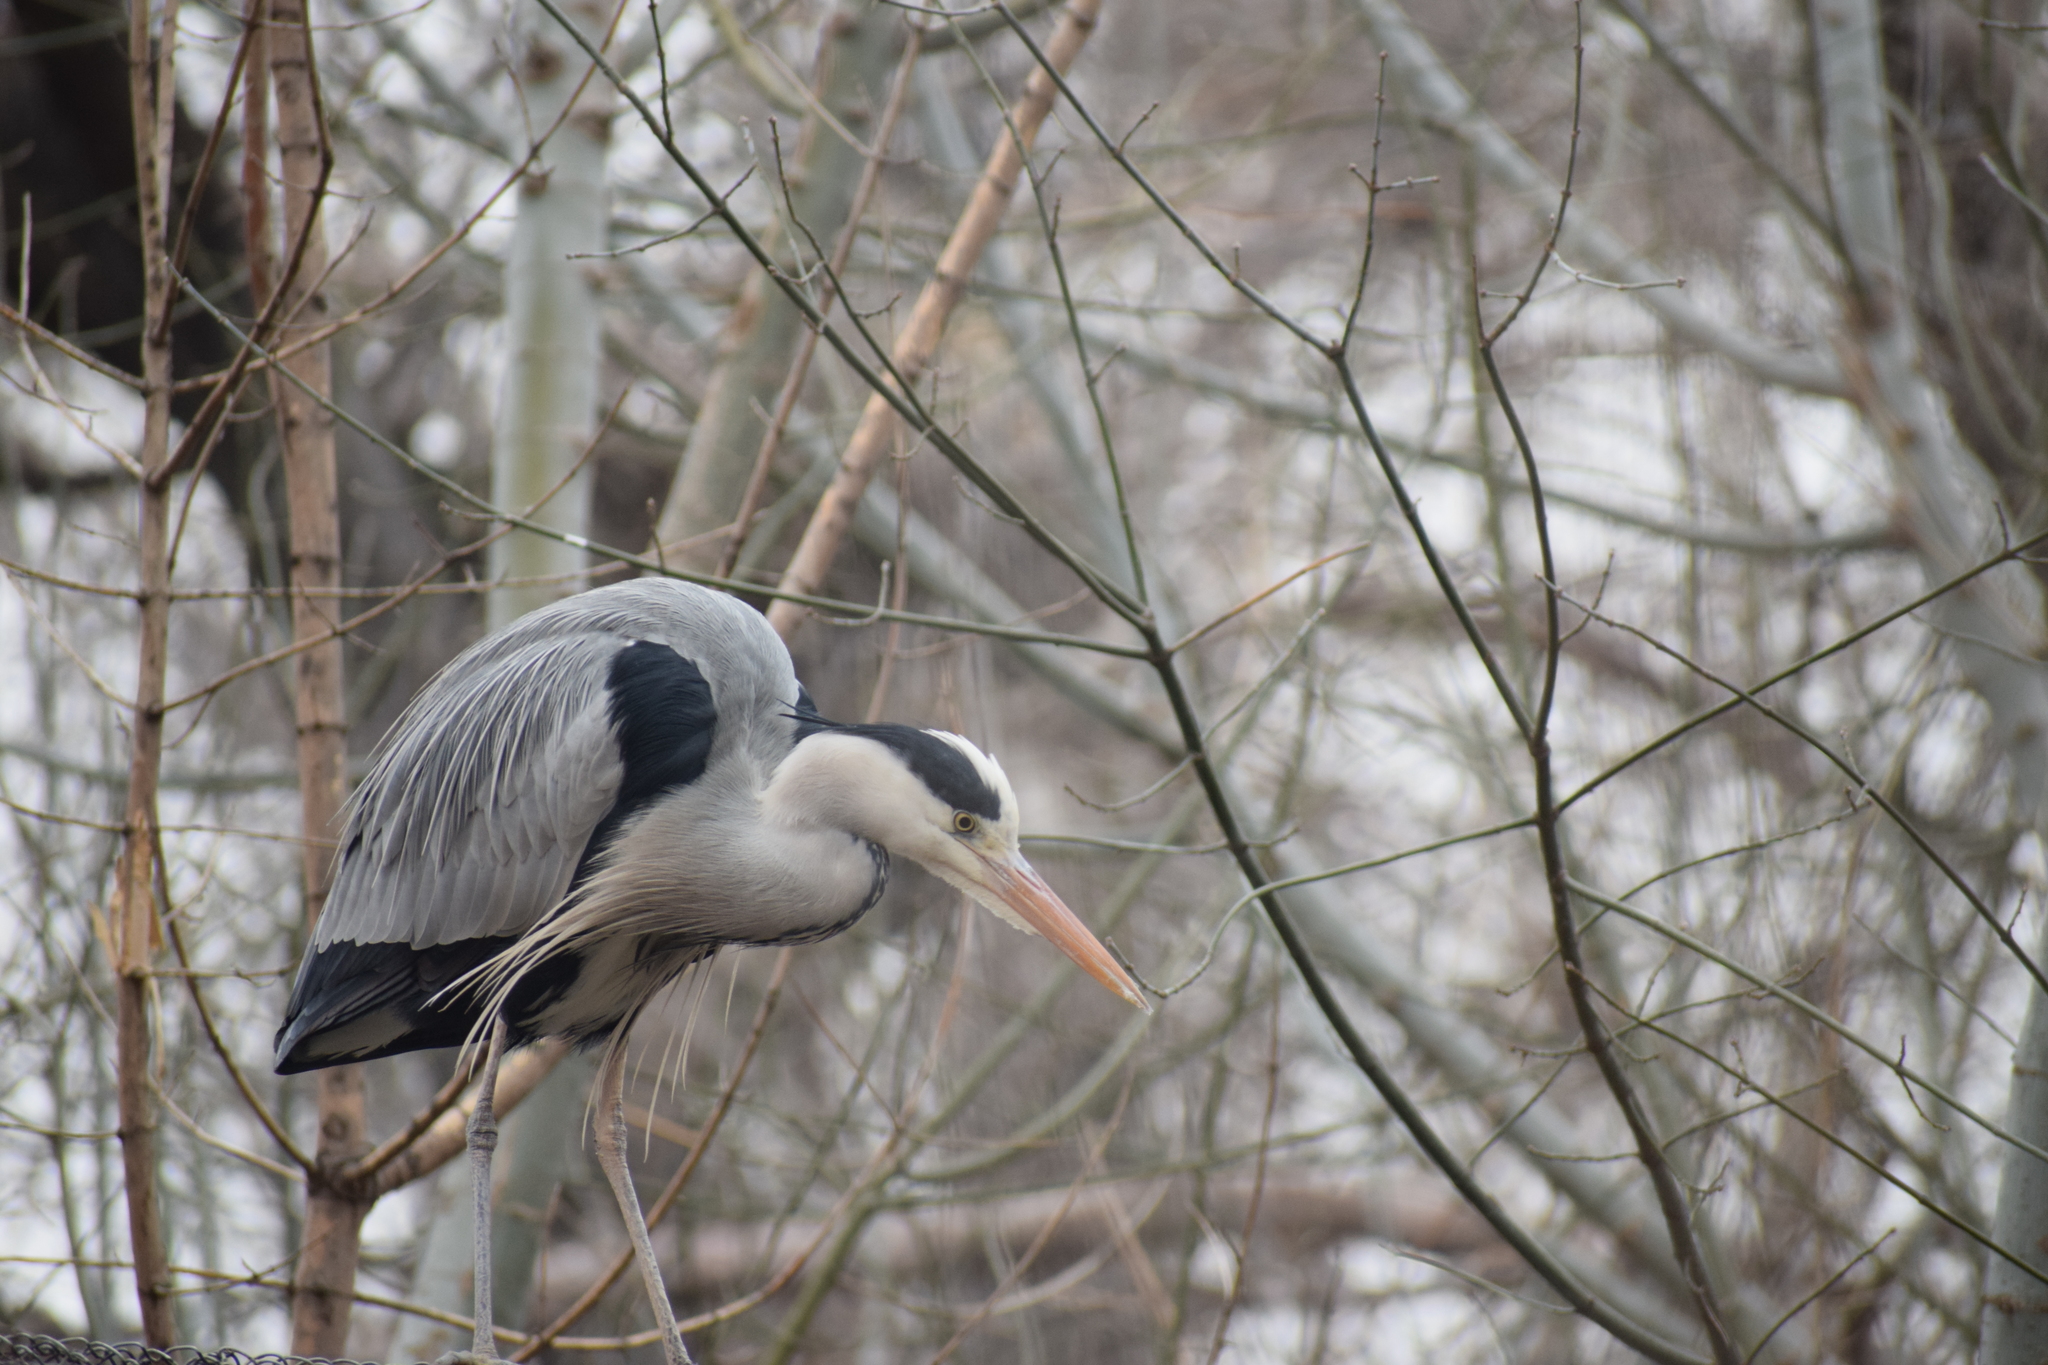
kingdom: Animalia
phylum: Chordata
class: Aves
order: Pelecaniformes
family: Ardeidae
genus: Ardea
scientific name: Ardea cinerea
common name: Grey heron
